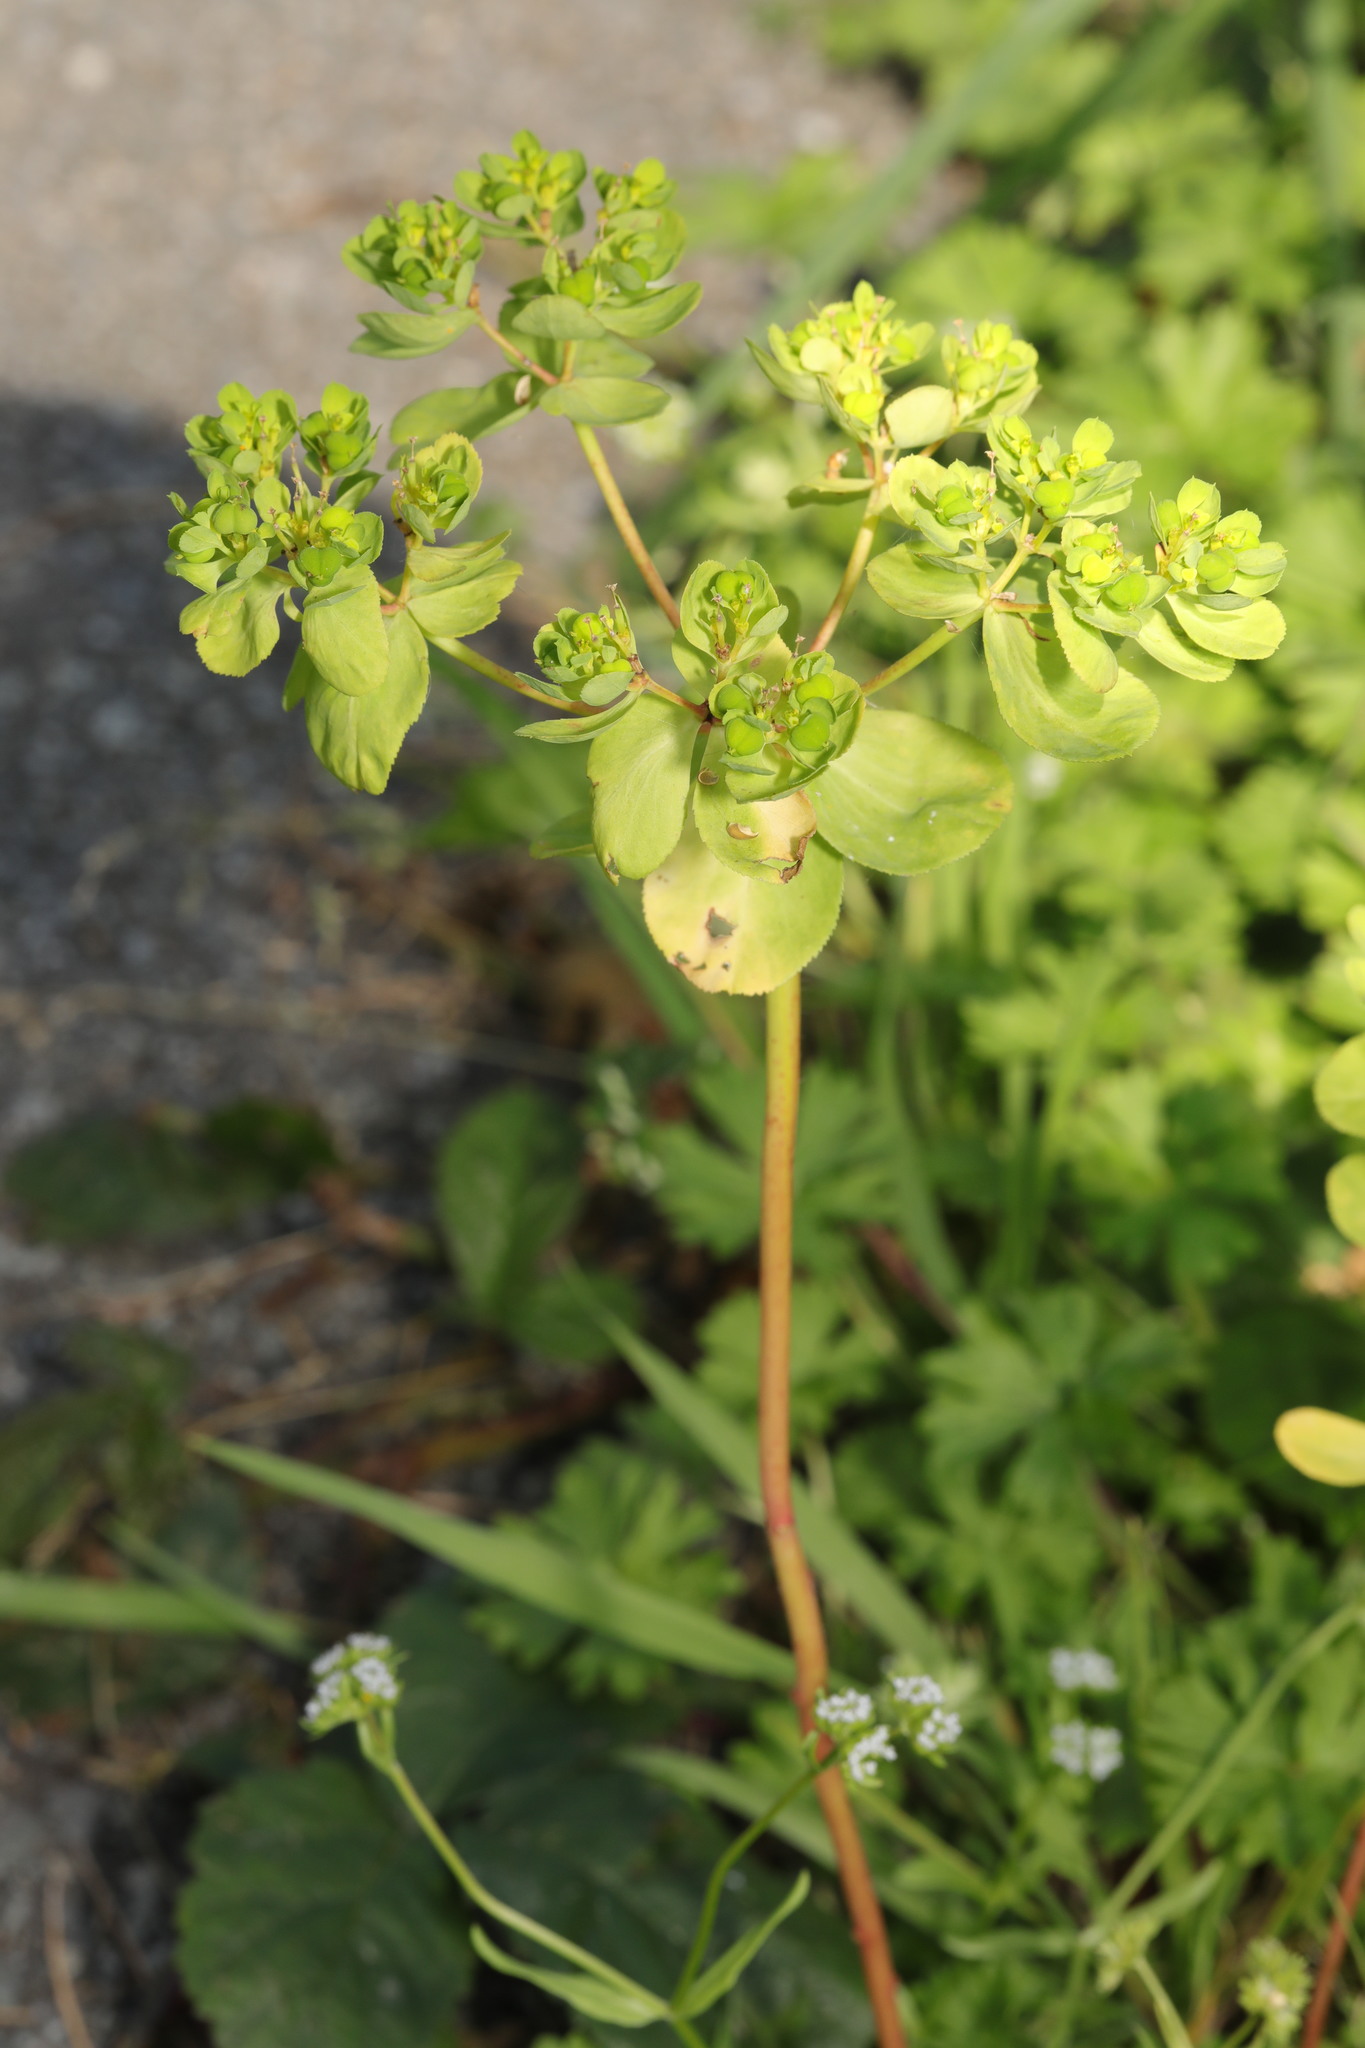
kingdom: Plantae
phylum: Tracheophyta
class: Magnoliopsida
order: Malpighiales
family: Euphorbiaceae
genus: Euphorbia
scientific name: Euphorbia helioscopia
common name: Sun spurge
